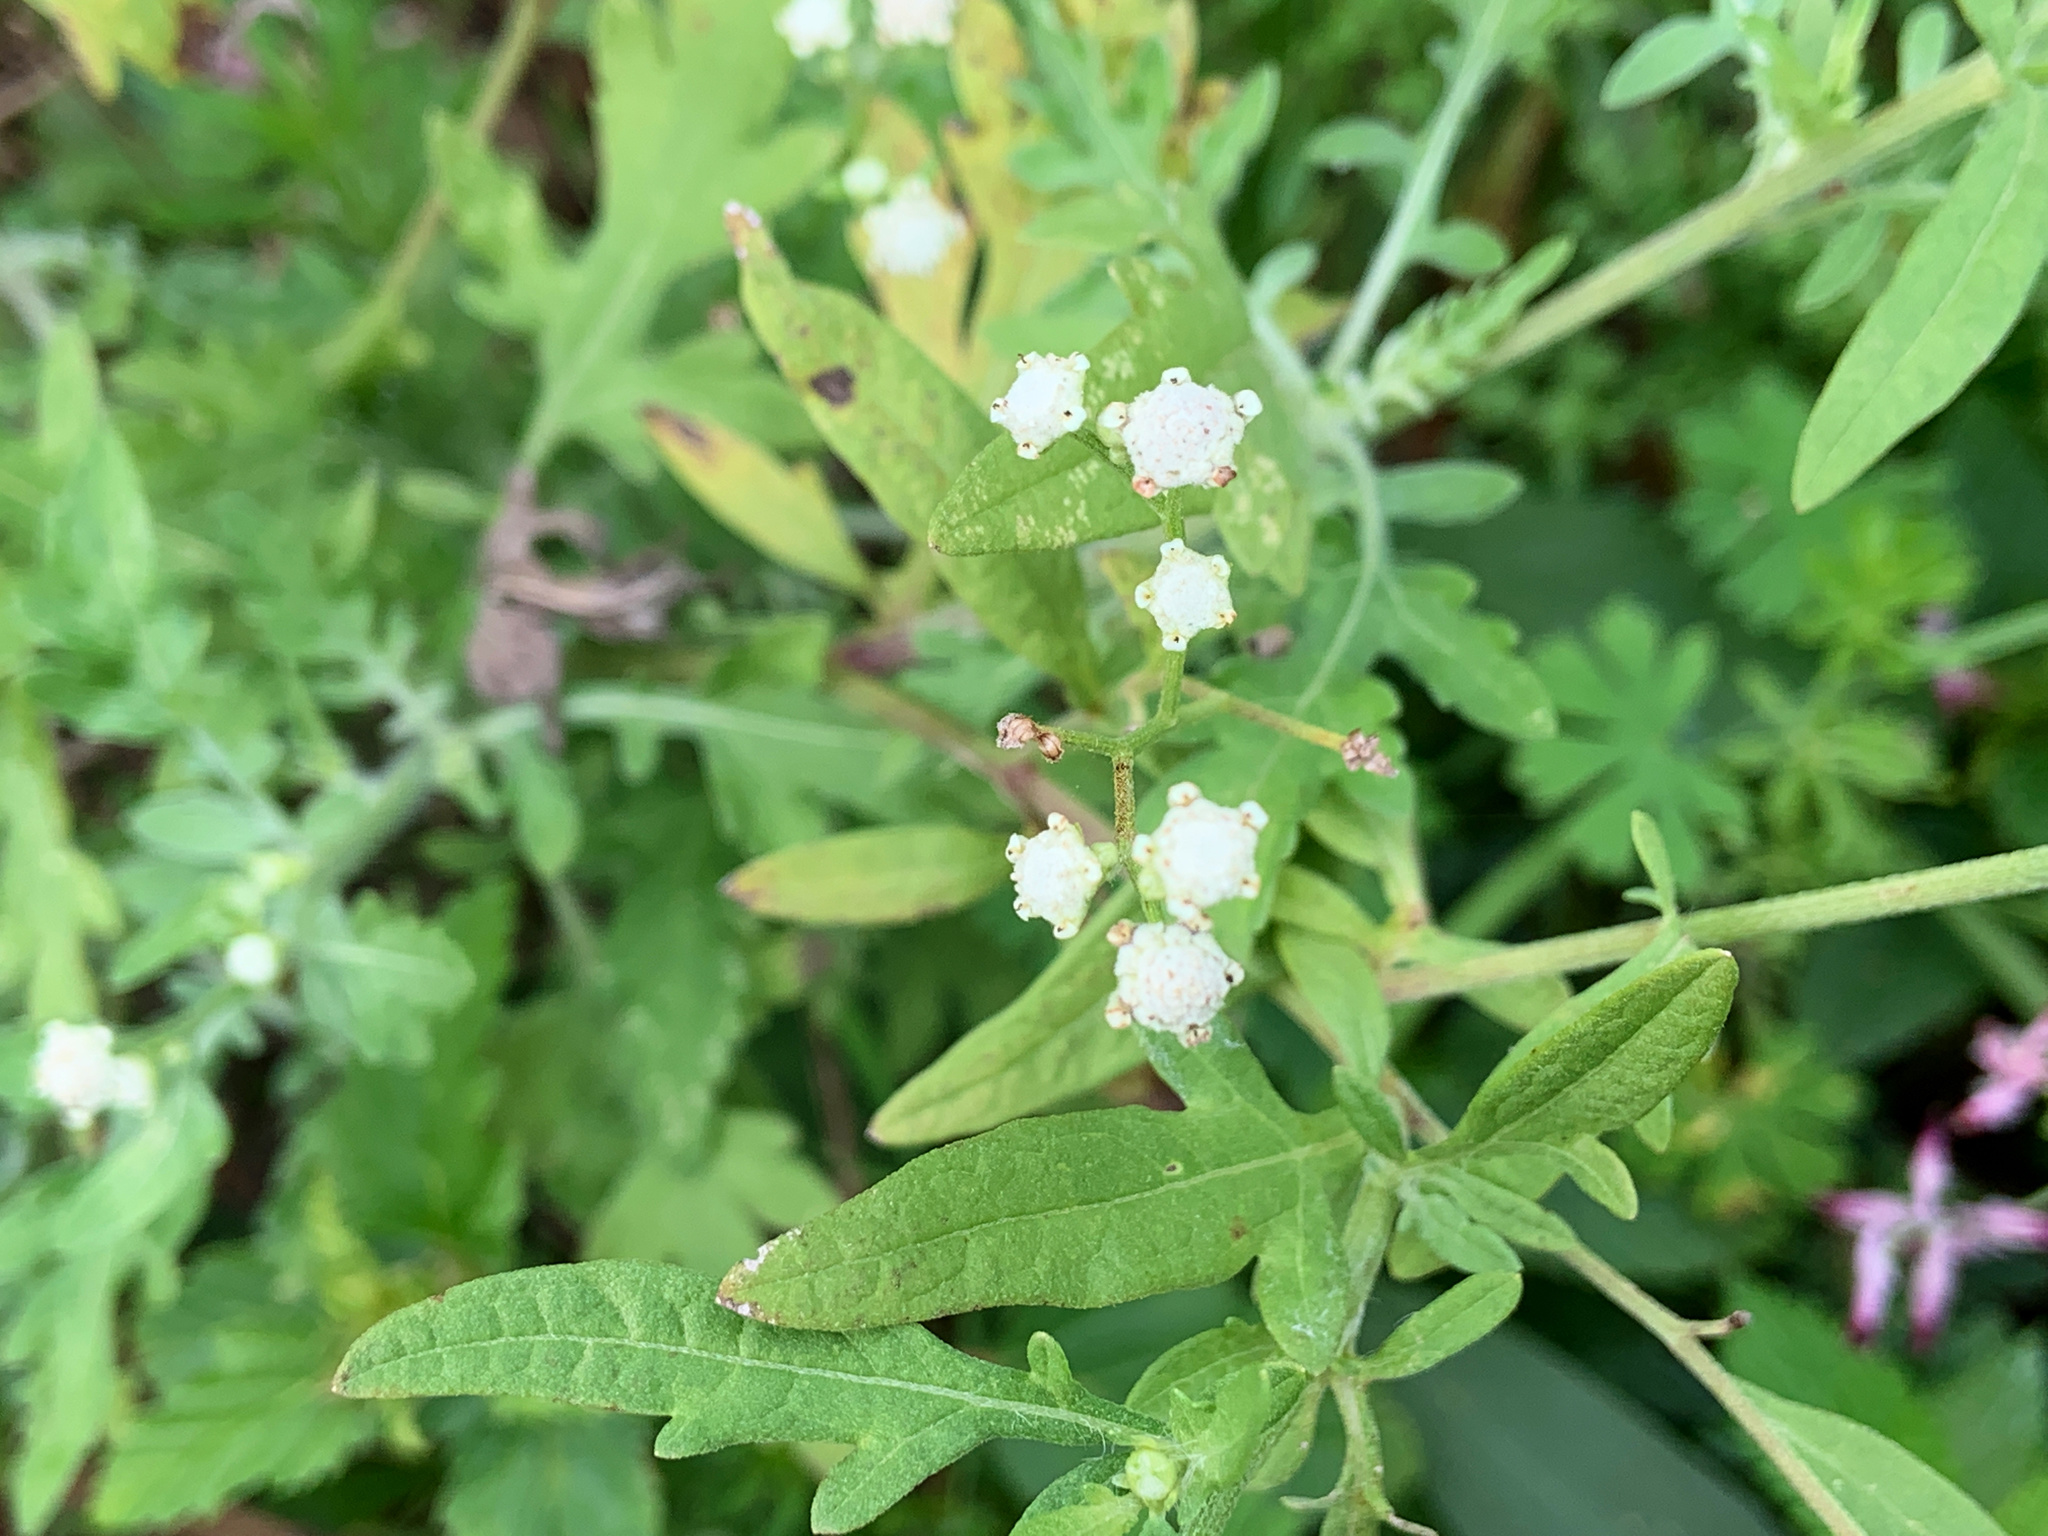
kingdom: Plantae
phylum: Tracheophyta
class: Magnoliopsida
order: Asterales
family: Asteraceae
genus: Parthenium
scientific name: Parthenium hysterophorus
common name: Santa maria feverfew
